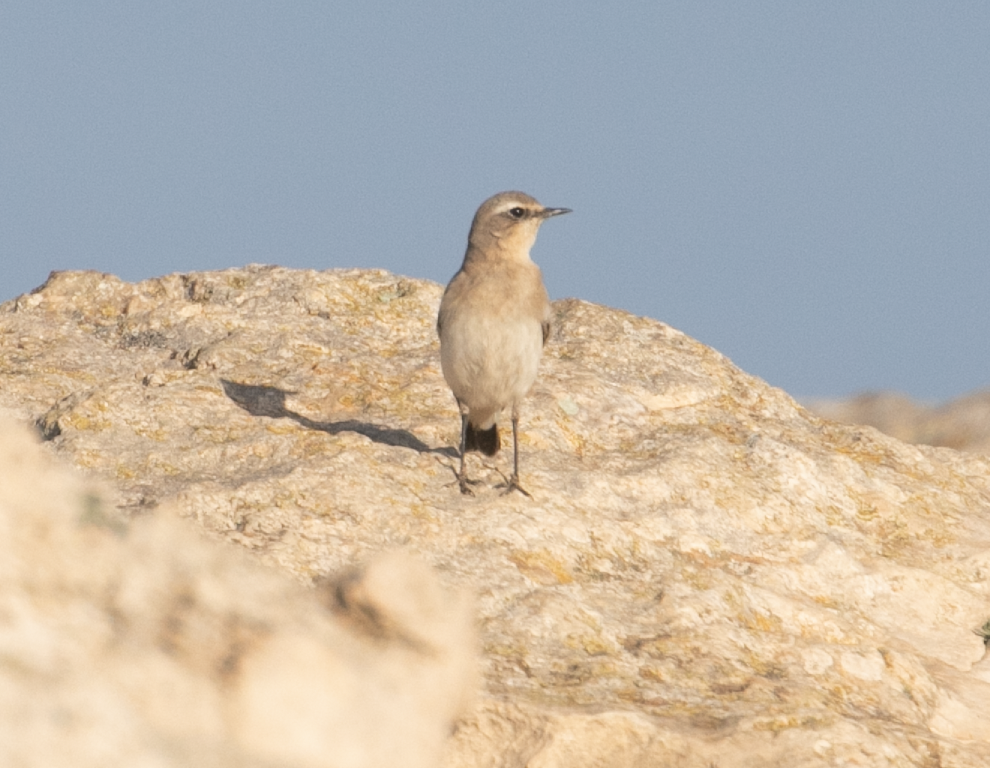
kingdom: Animalia
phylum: Chordata
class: Aves
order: Passeriformes
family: Muscicapidae
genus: Oenanthe
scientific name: Oenanthe oenanthe
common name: Northern wheatear
